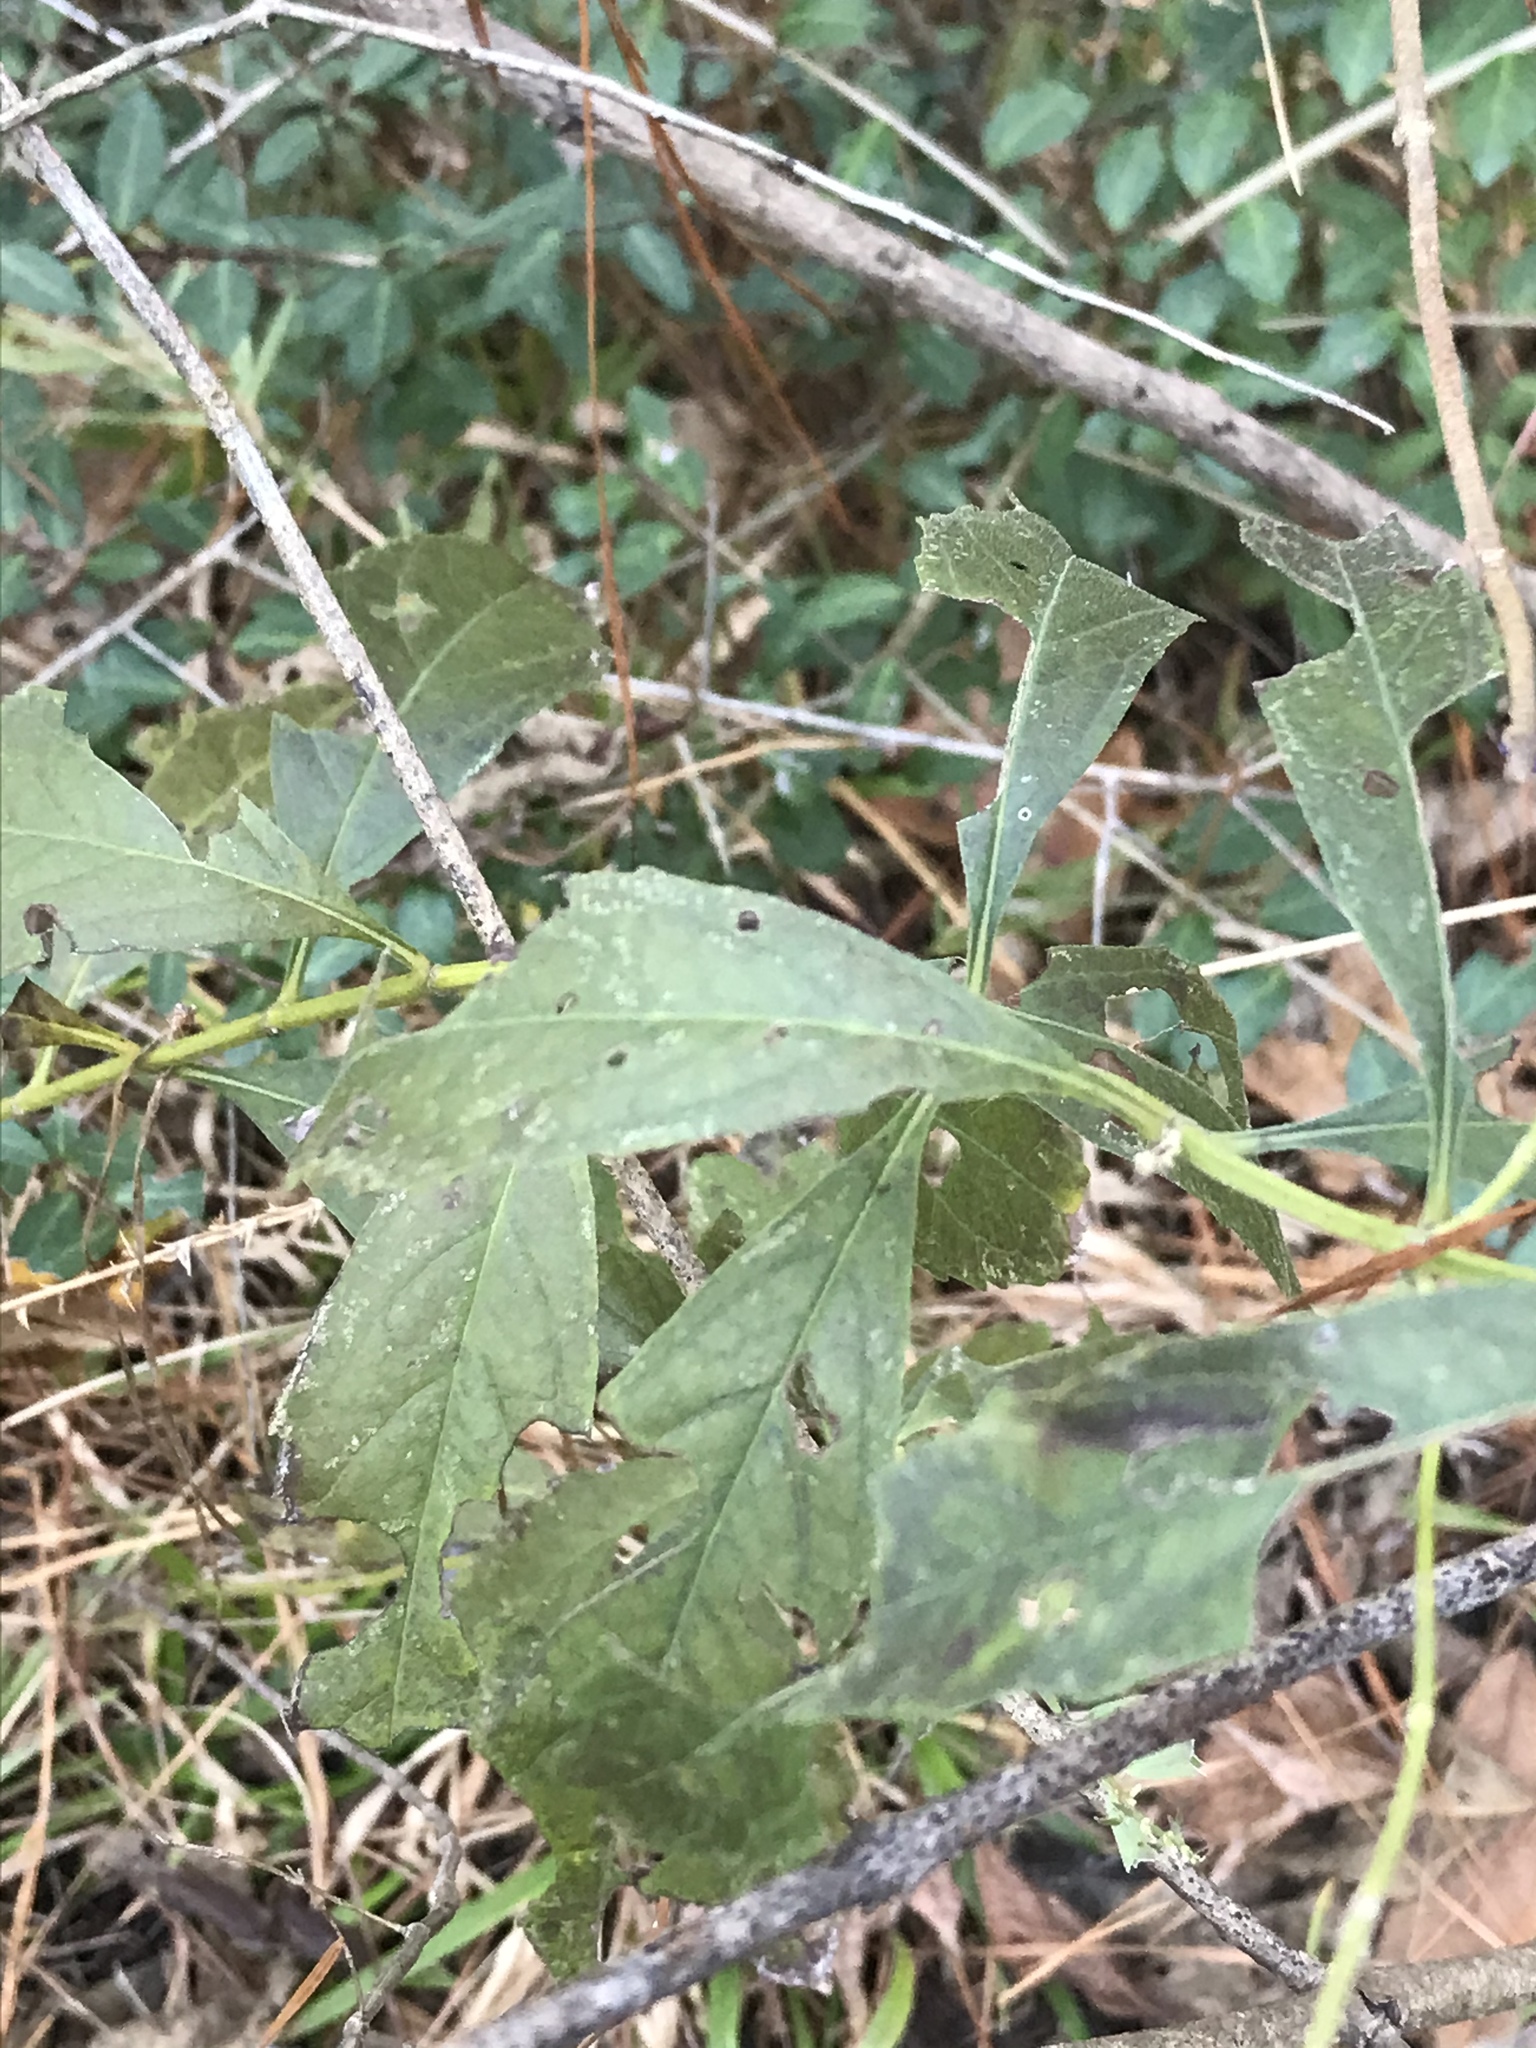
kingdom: Plantae
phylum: Tracheophyta
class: Magnoliopsida
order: Lamiales
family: Lamiaceae
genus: Salvia
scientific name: Salvia azurea
